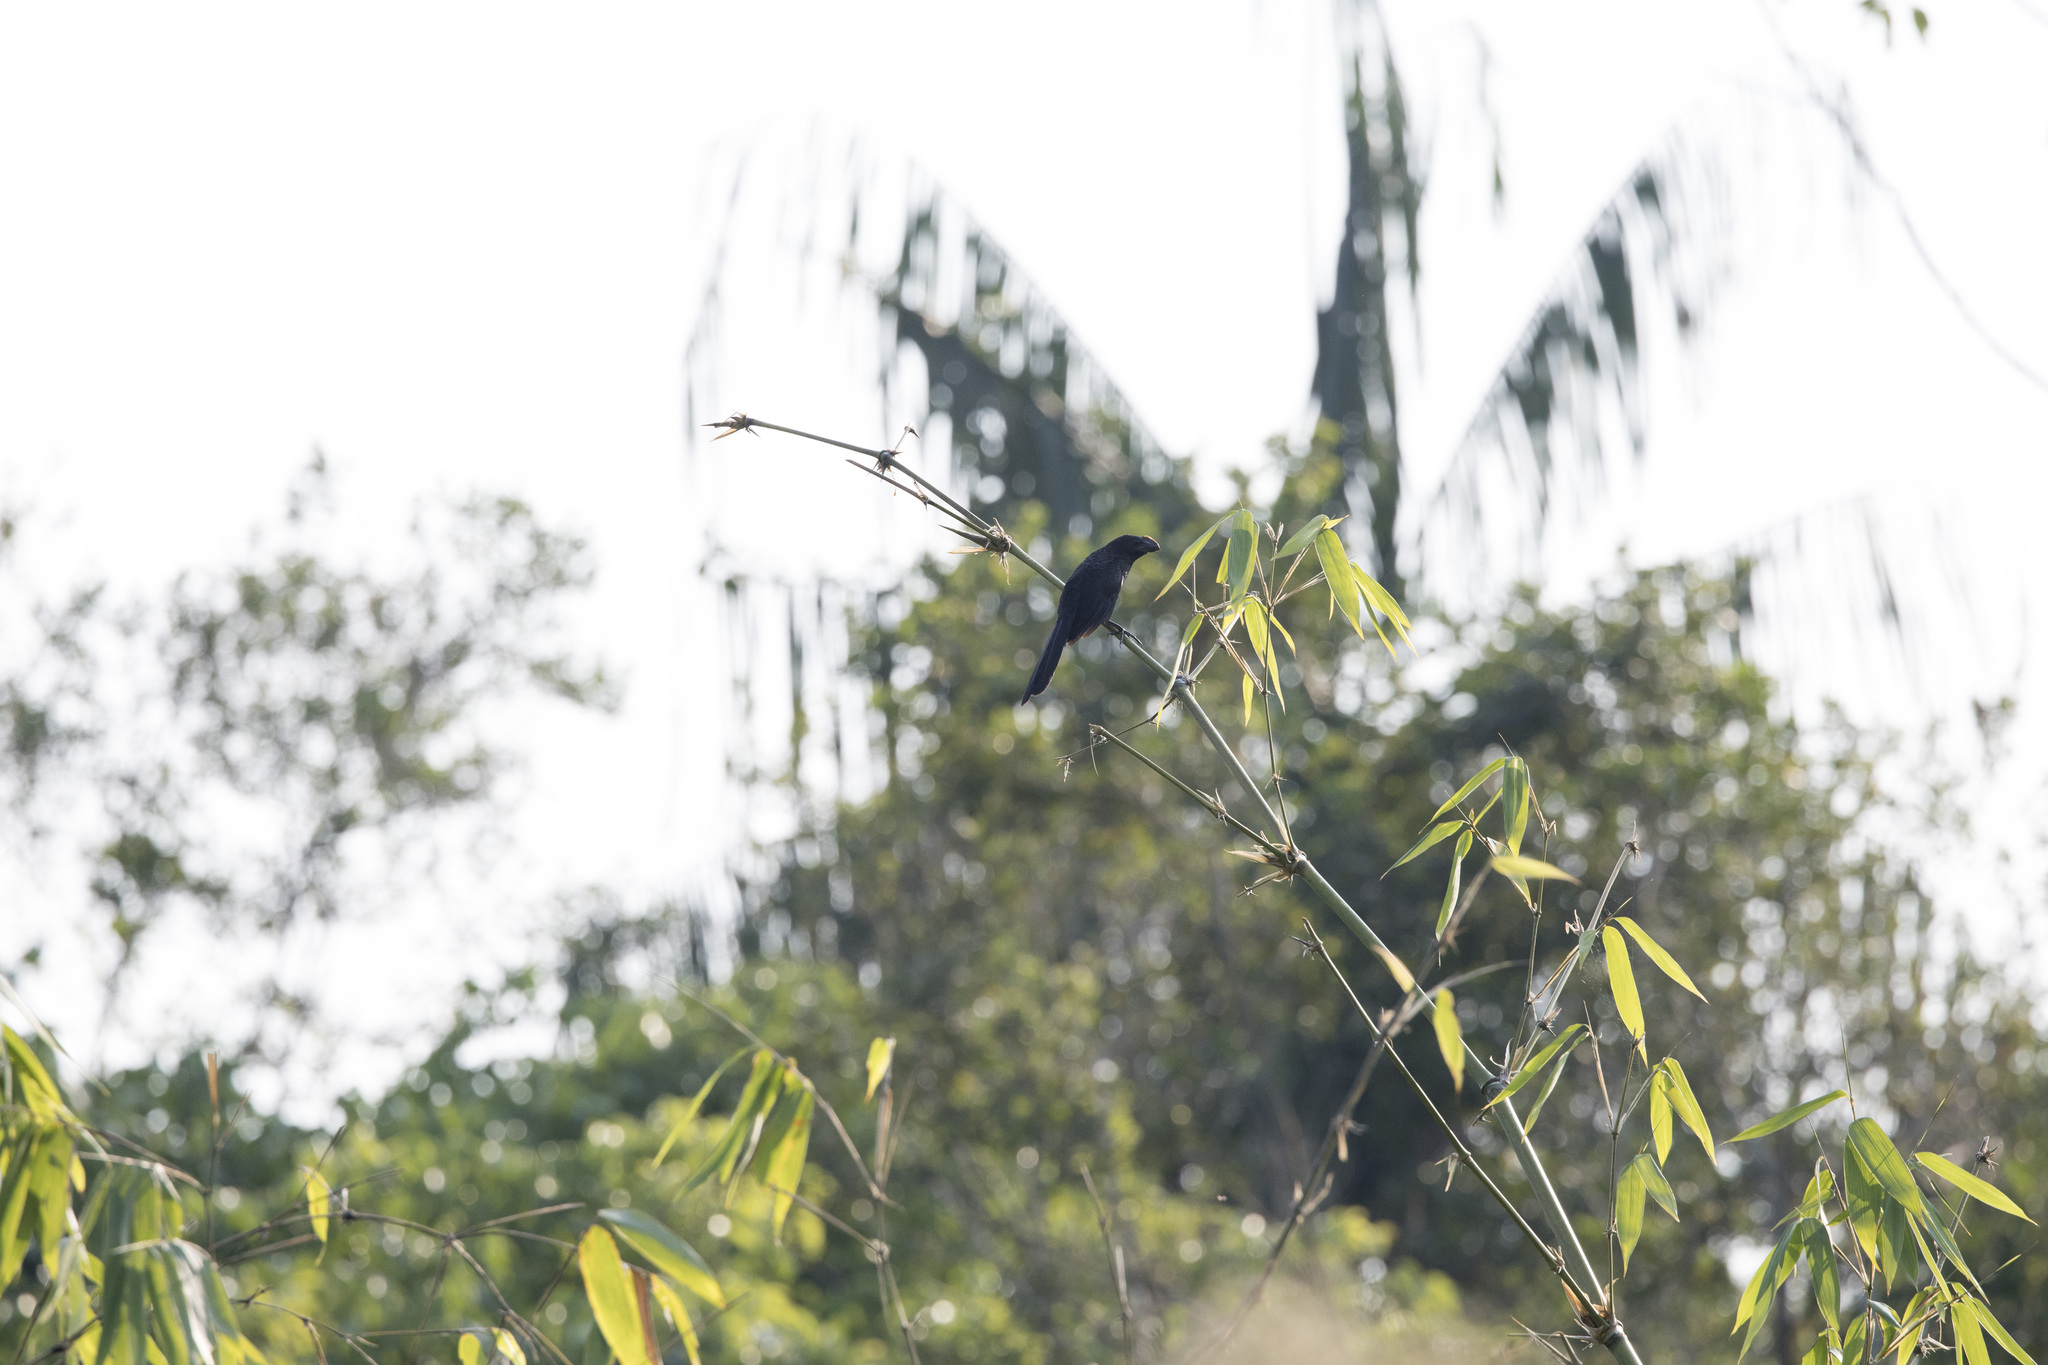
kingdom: Animalia
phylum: Chordata
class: Aves
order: Cuculiformes
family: Cuculidae
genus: Crotophaga
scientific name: Crotophaga ani
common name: Smooth-billed ani
